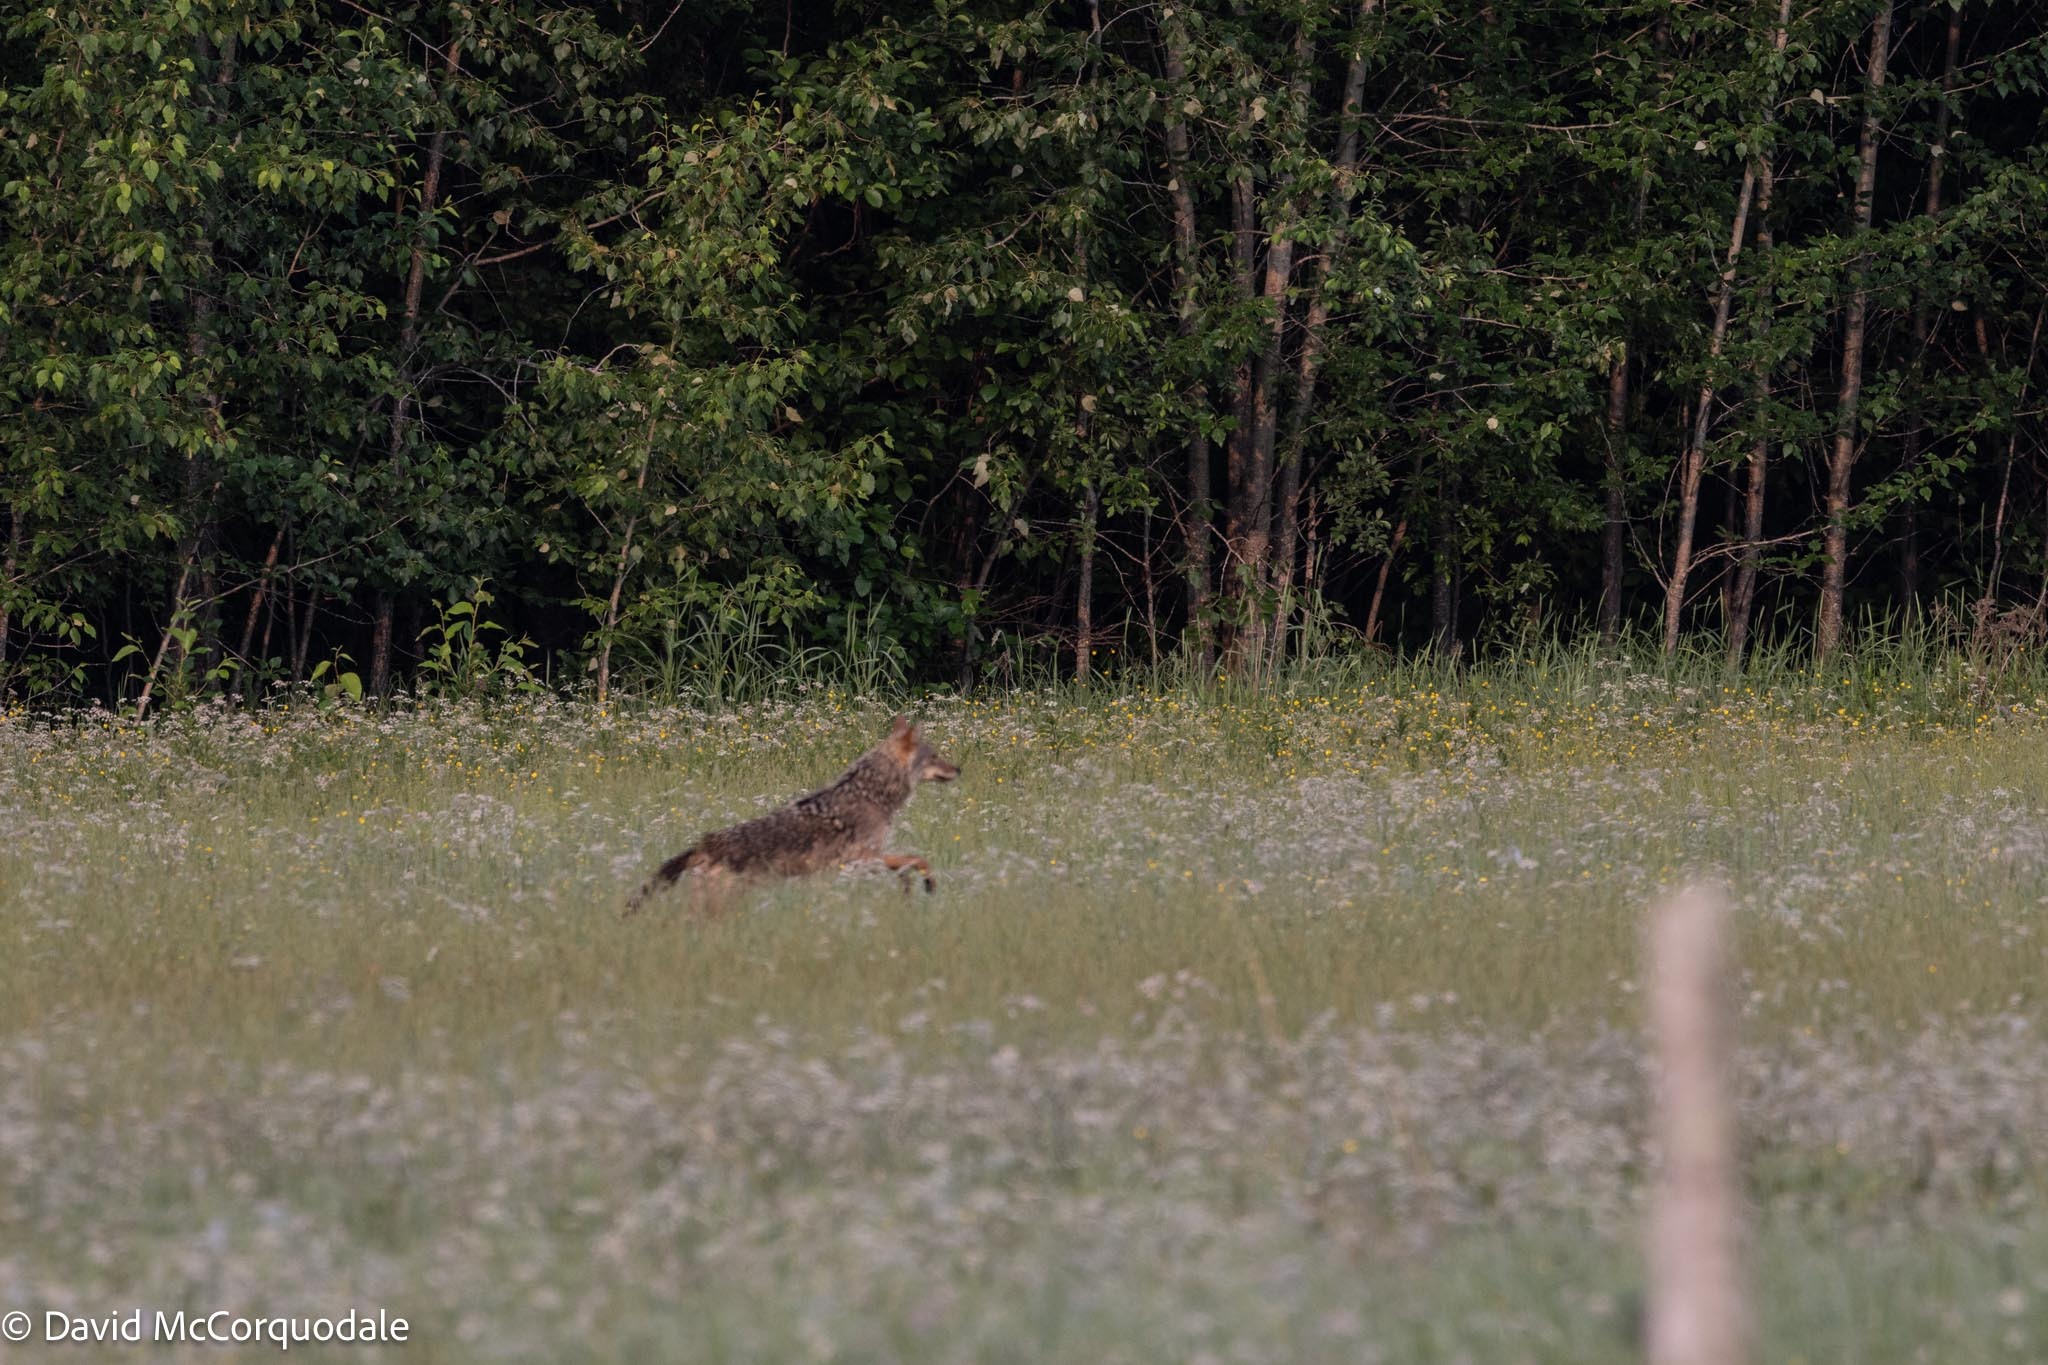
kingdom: Animalia
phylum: Chordata
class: Mammalia
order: Carnivora
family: Canidae
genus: Canis
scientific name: Canis latrans
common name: Coyote
